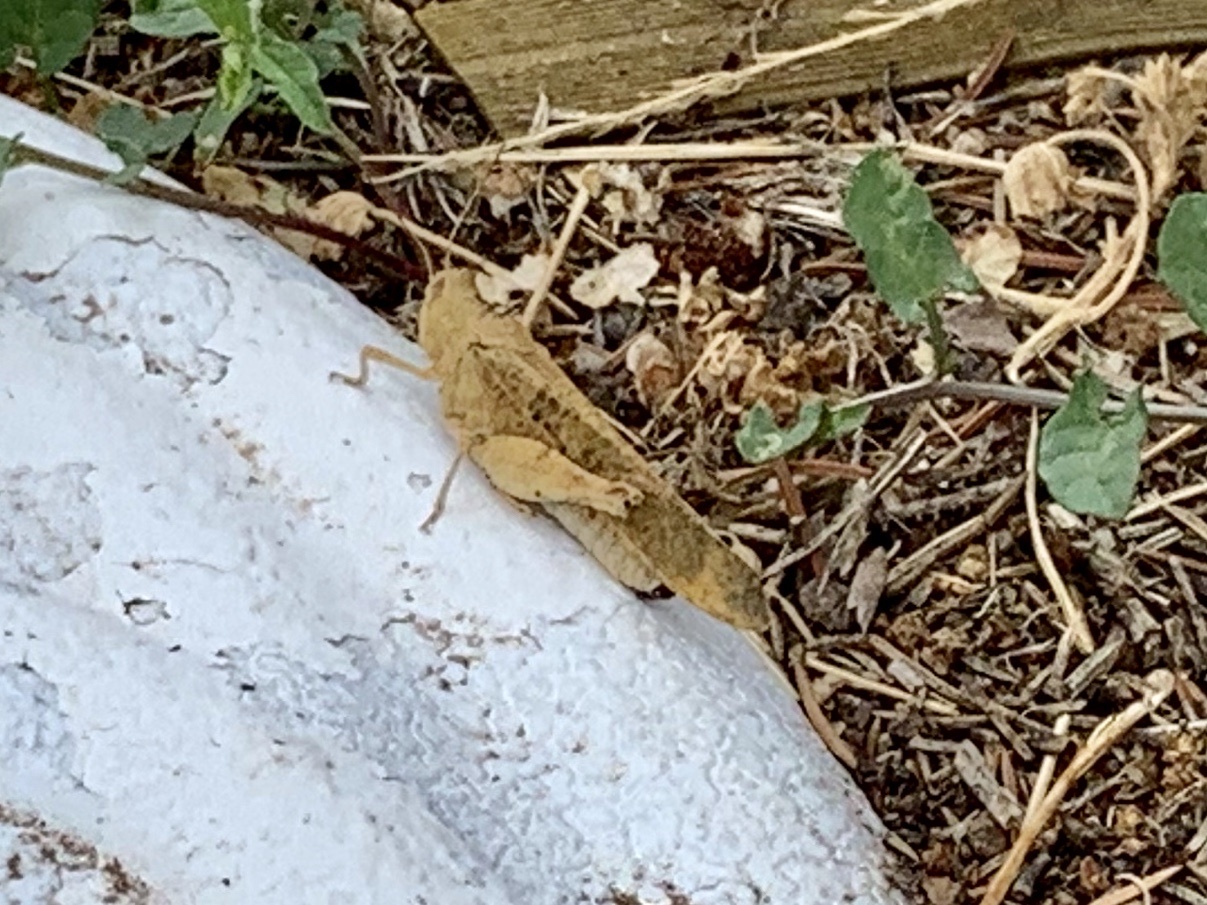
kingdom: Animalia
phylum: Arthropoda
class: Insecta
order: Orthoptera
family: Acrididae
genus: Dissosteira
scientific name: Dissosteira carolina
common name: Carolina grasshopper
